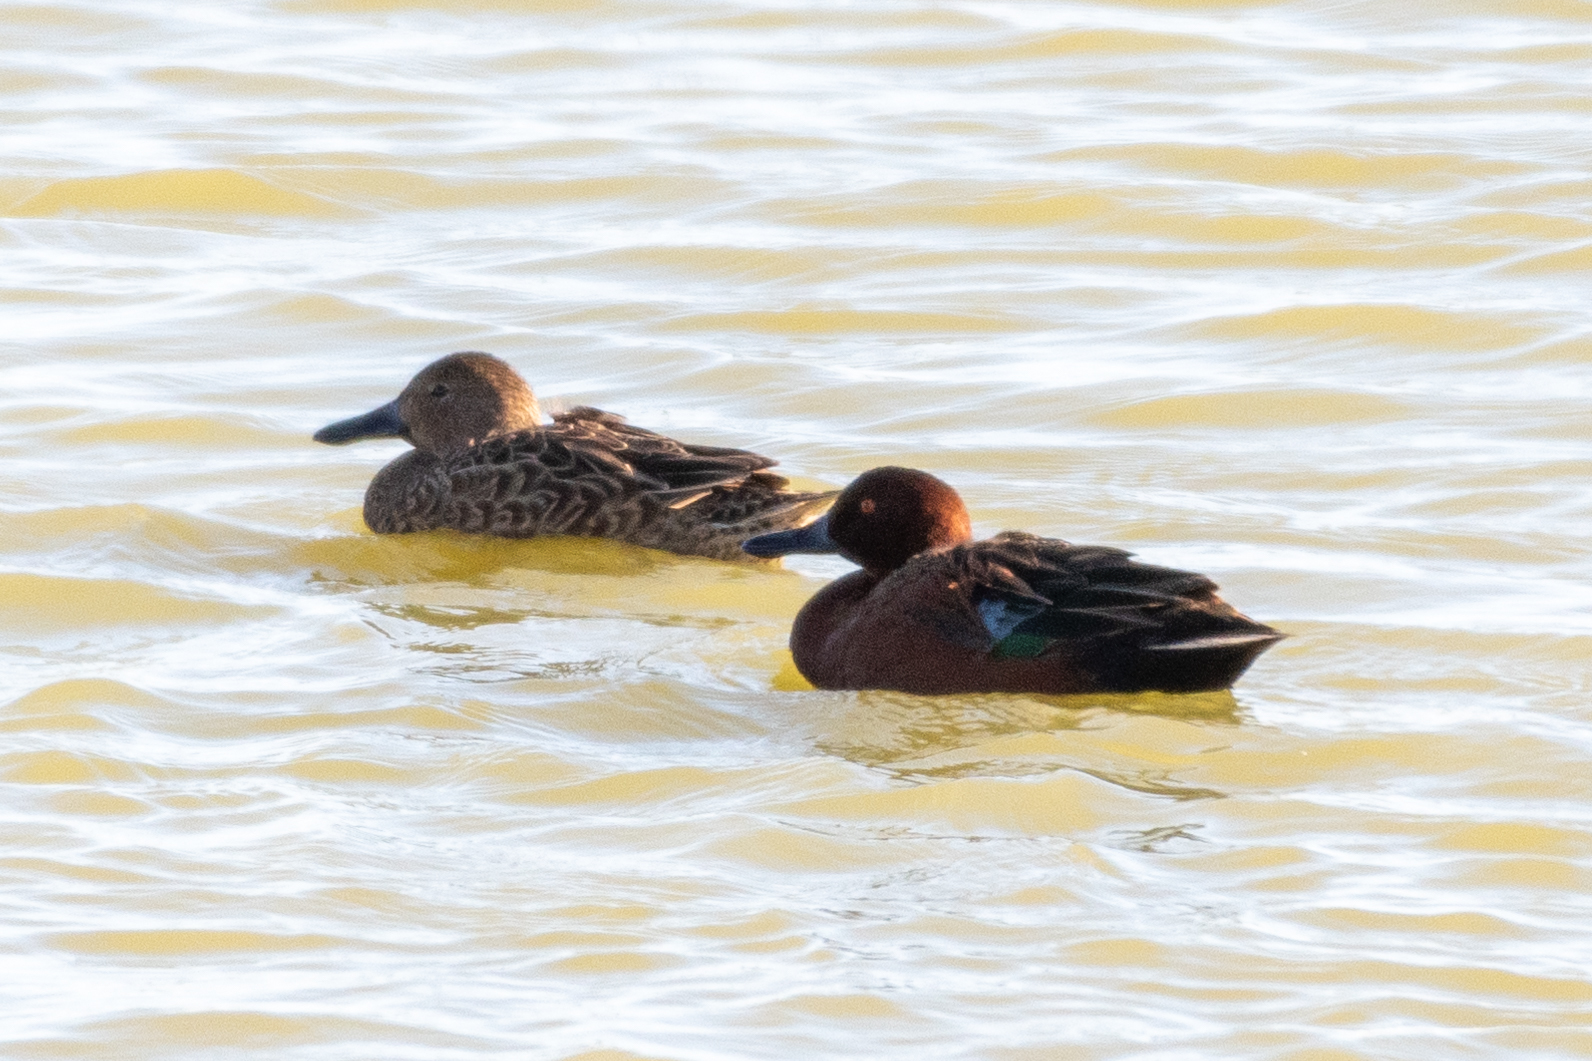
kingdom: Animalia
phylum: Chordata
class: Aves
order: Anseriformes
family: Anatidae
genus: Spatula
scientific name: Spatula cyanoptera
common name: Cinnamon teal
